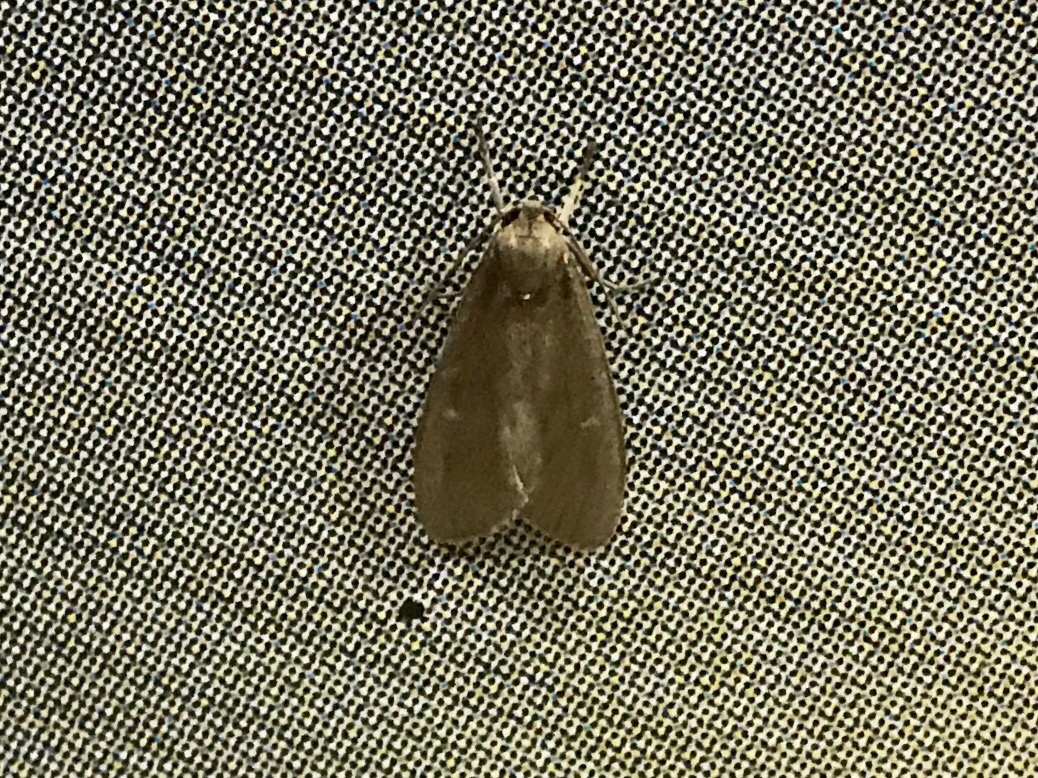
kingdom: Animalia
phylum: Arthropoda
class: Insecta
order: Lepidoptera
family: Erebidae
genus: Euchaetes
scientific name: Euchaetes zella
